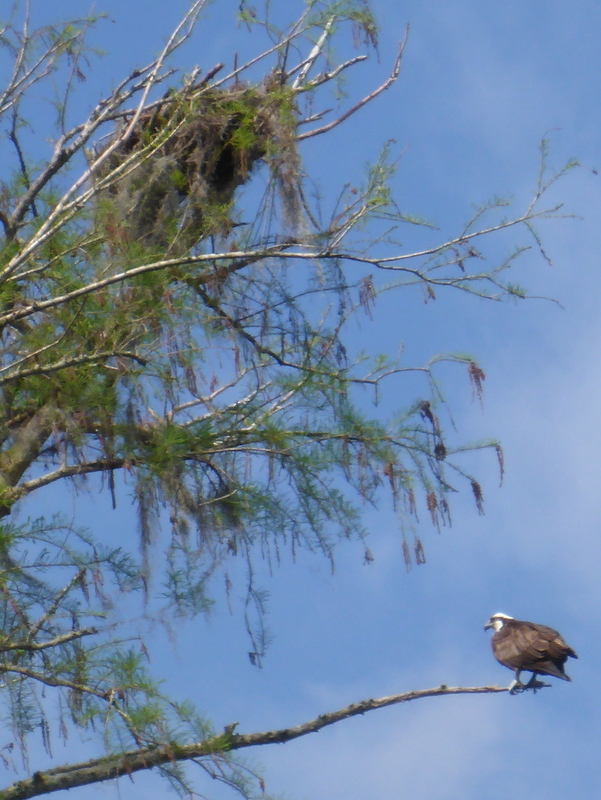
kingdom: Animalia
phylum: Chordata
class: Aves
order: Accipitriformes
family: Pandionidae
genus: Pandion
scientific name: Pandion haliaetus
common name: Osprey
